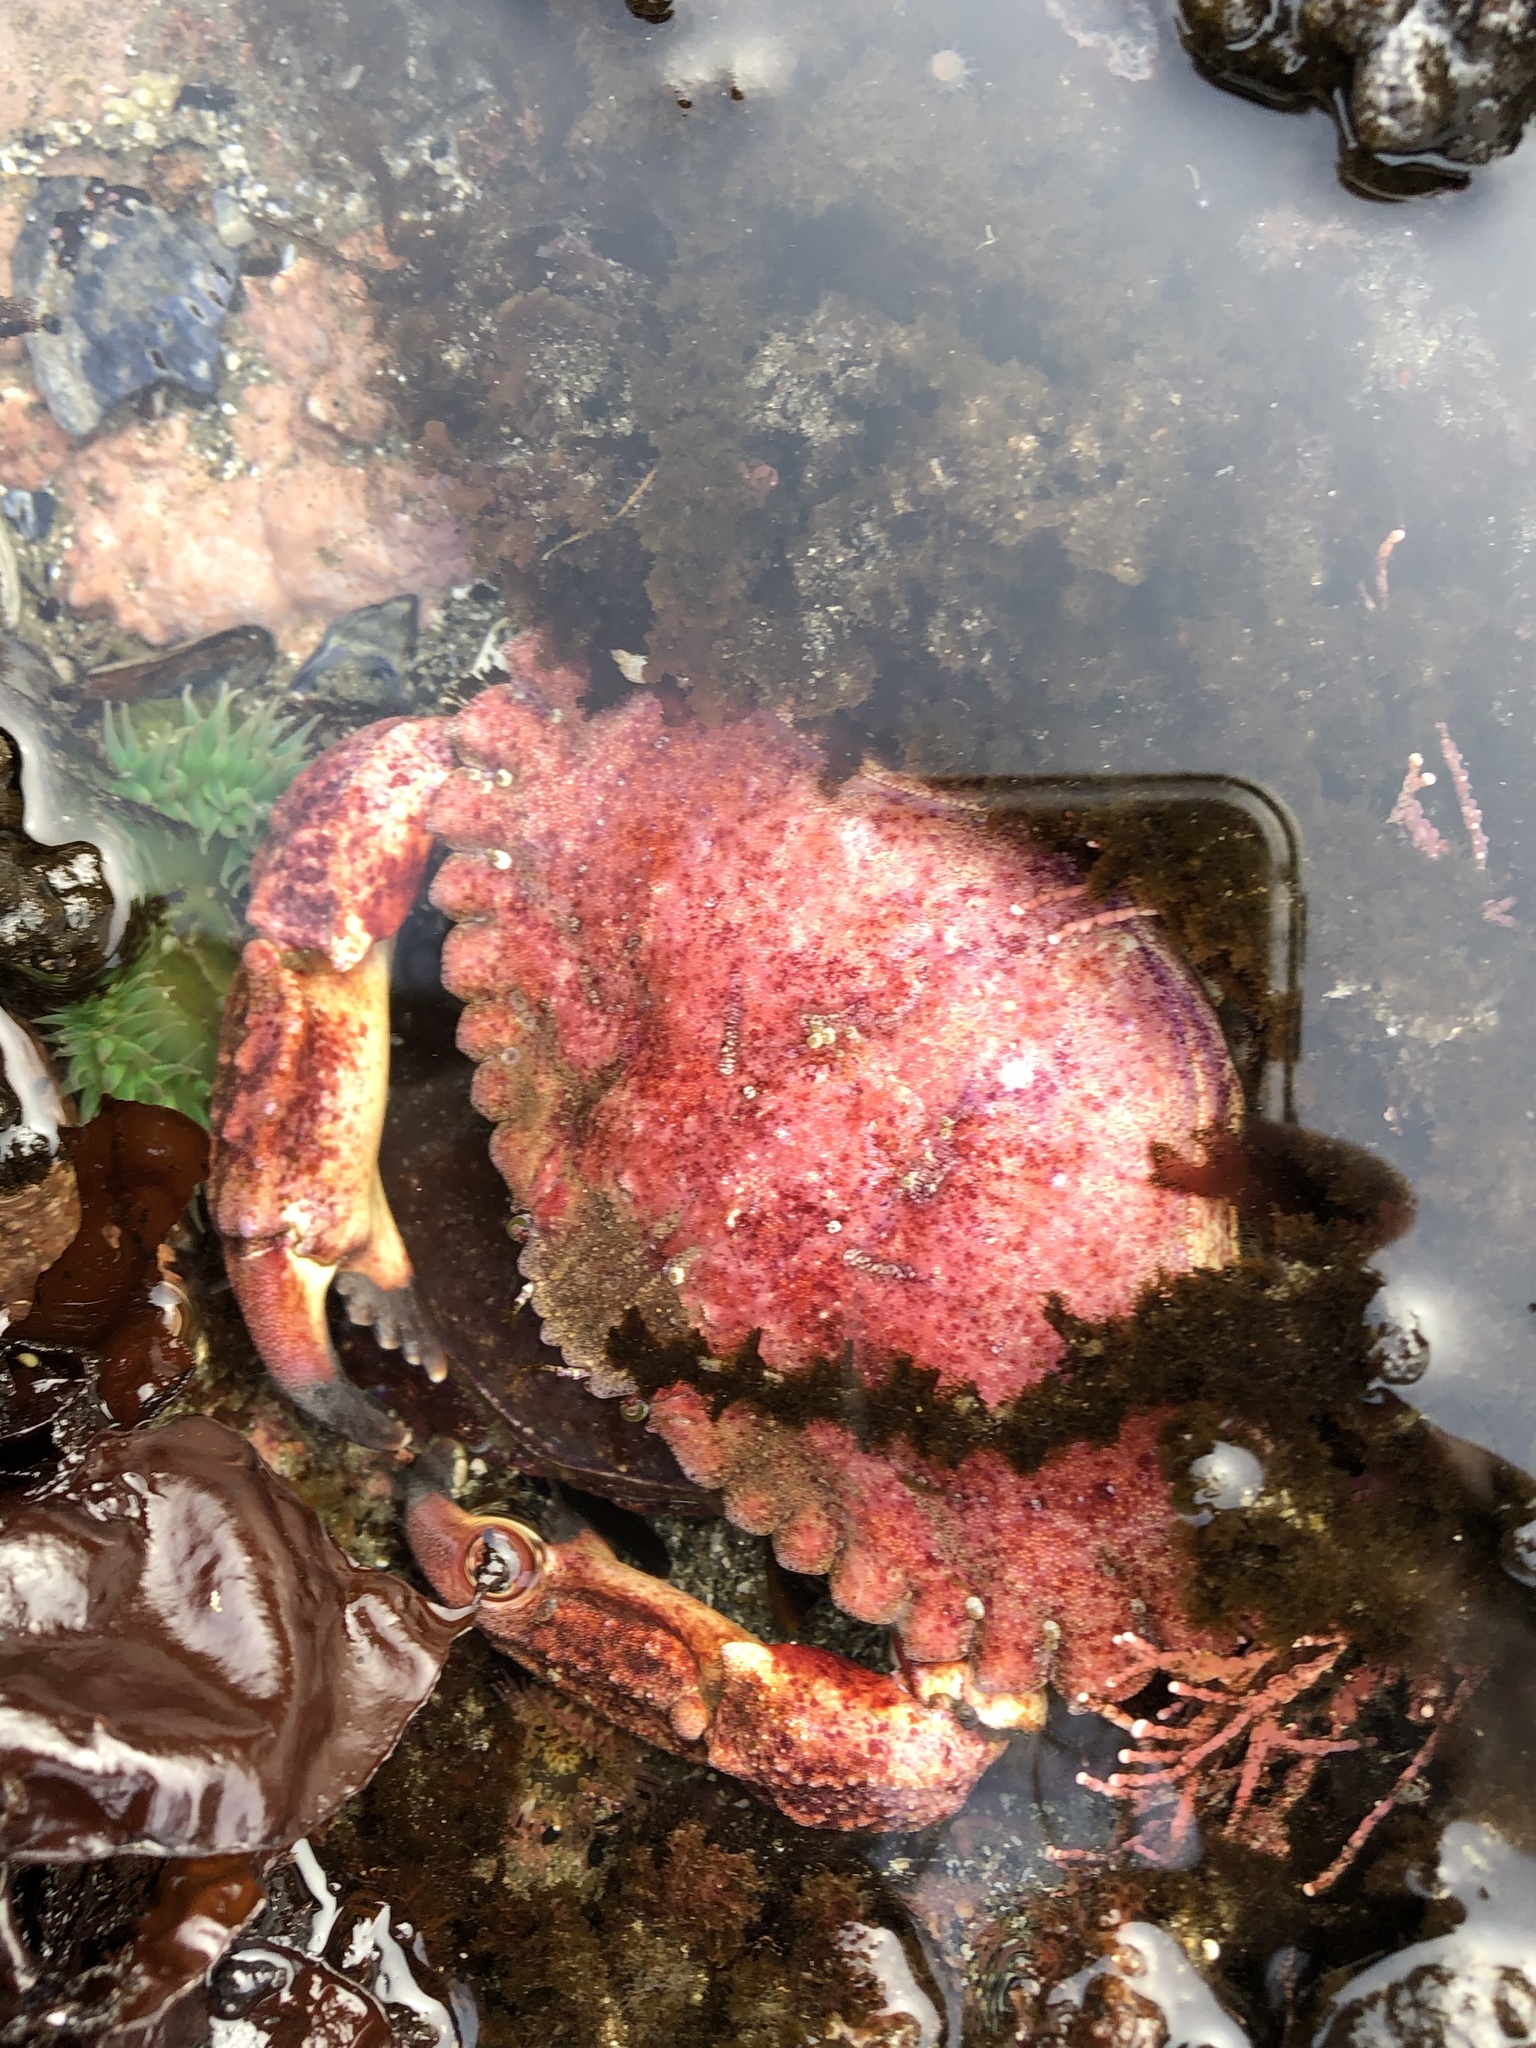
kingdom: Animalia
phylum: Arthropoda
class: Malacostraca
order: Decapoda
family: Cancridae
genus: Cancer
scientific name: Cancer productus
